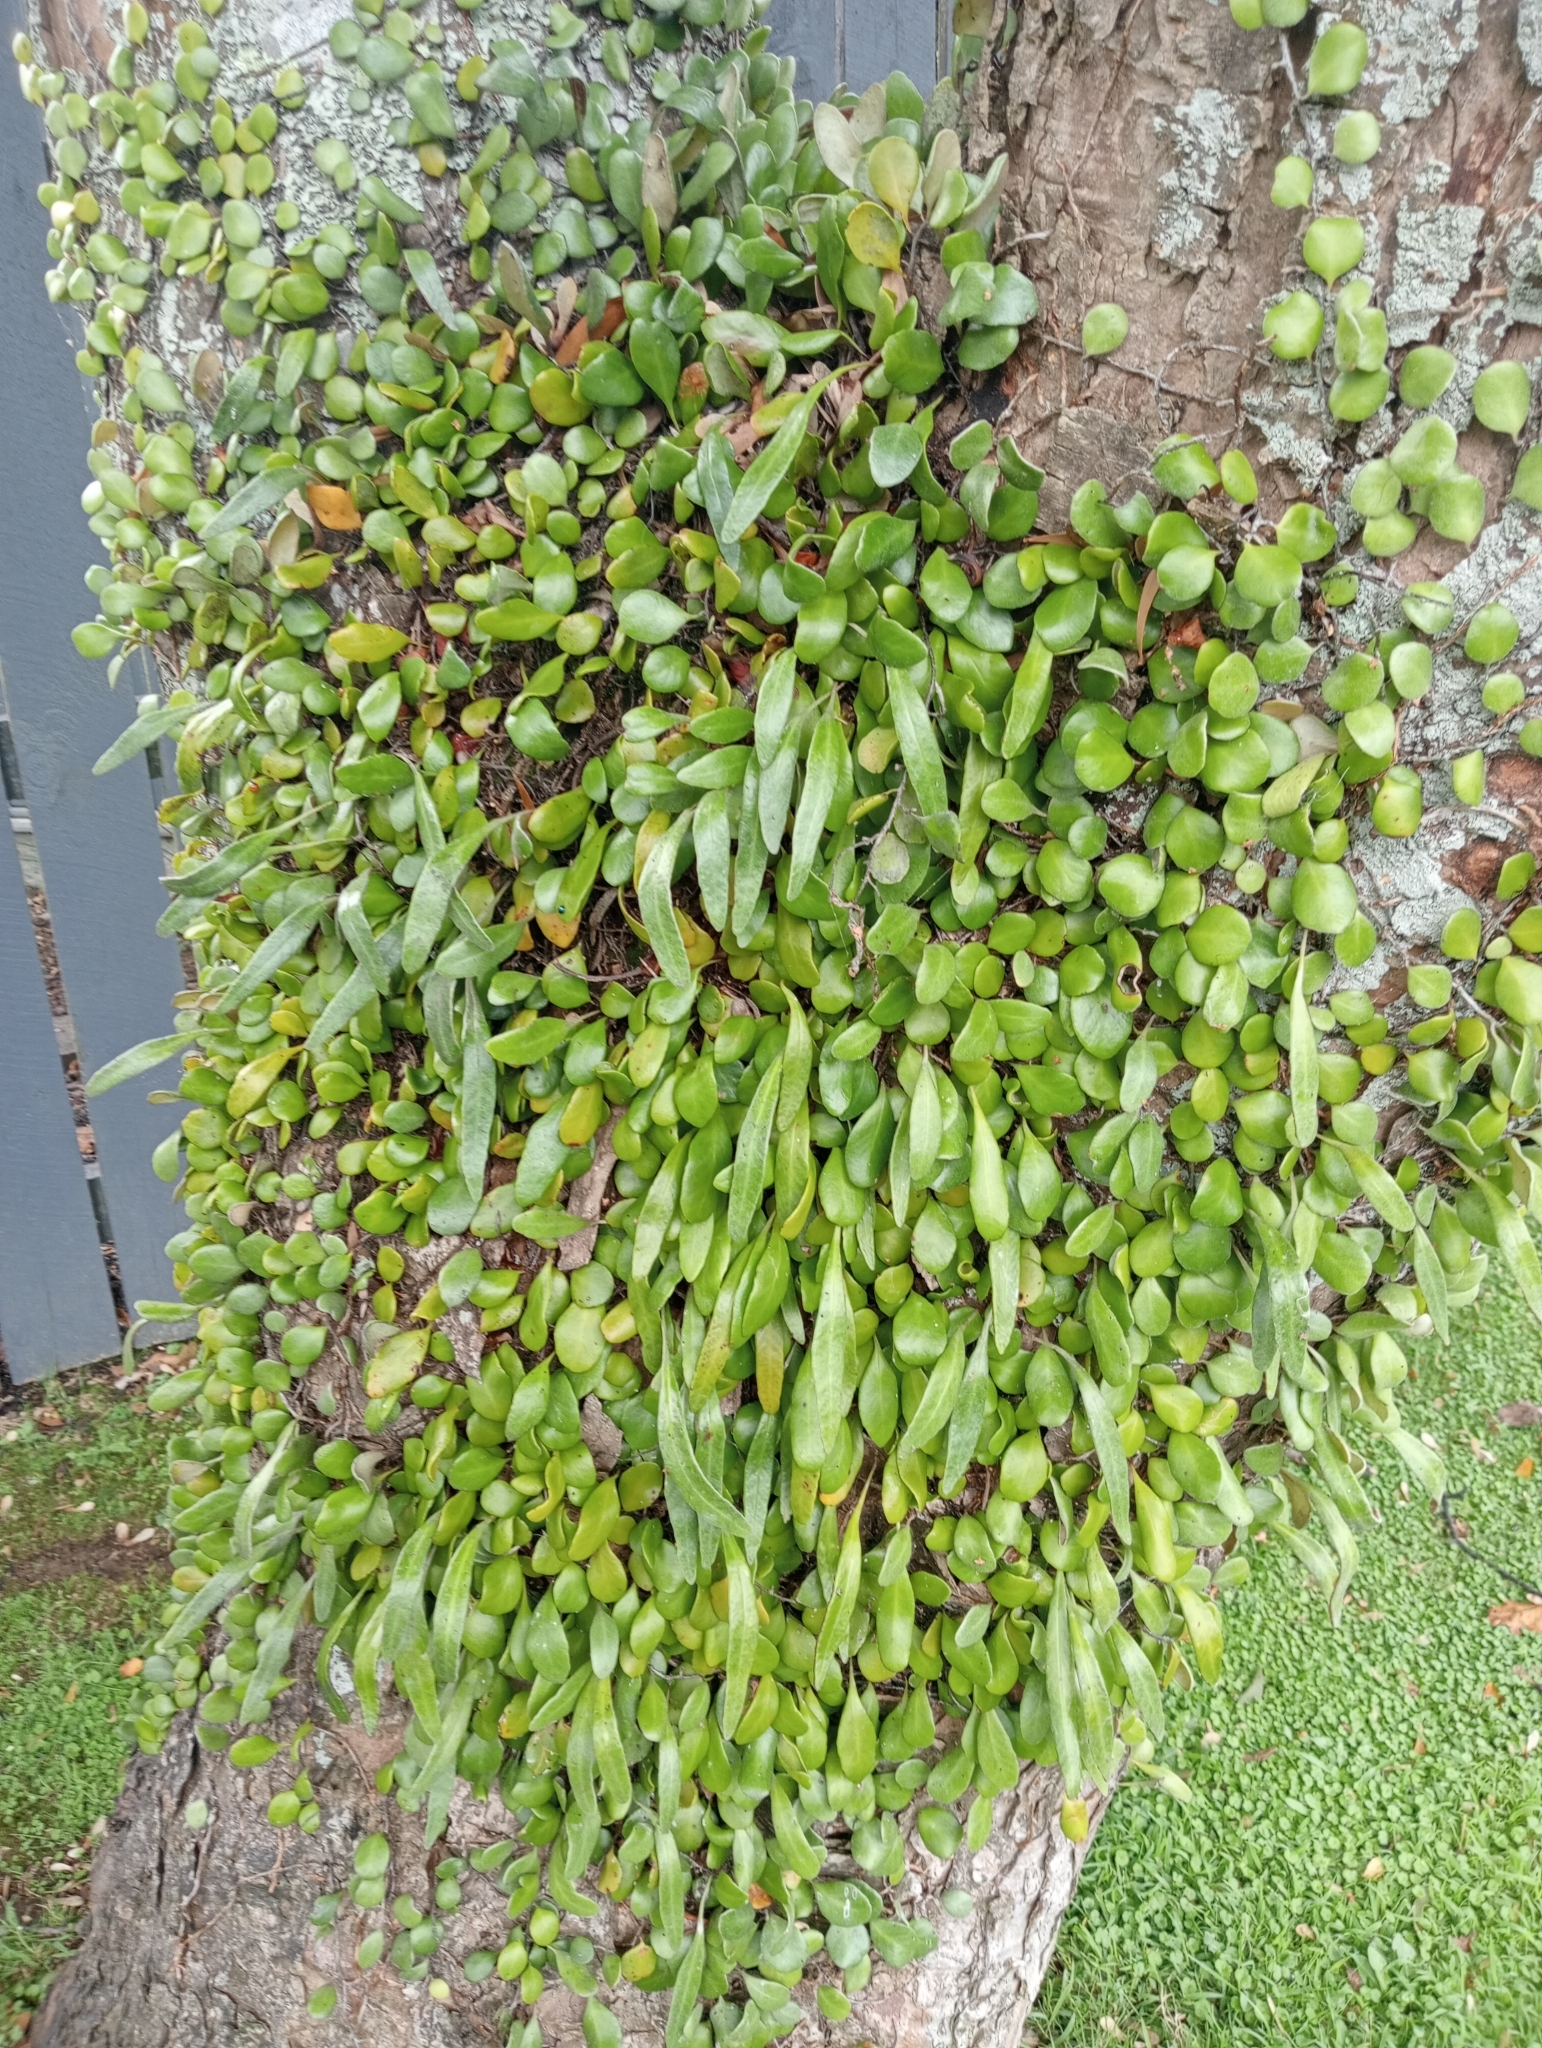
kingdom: Plantae
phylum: Tracheophyta
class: Polypodiopsida
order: Polypodiales
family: Polypodiaceae
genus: Pyrrosia
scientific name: Pyrrosia eleagnifolia
